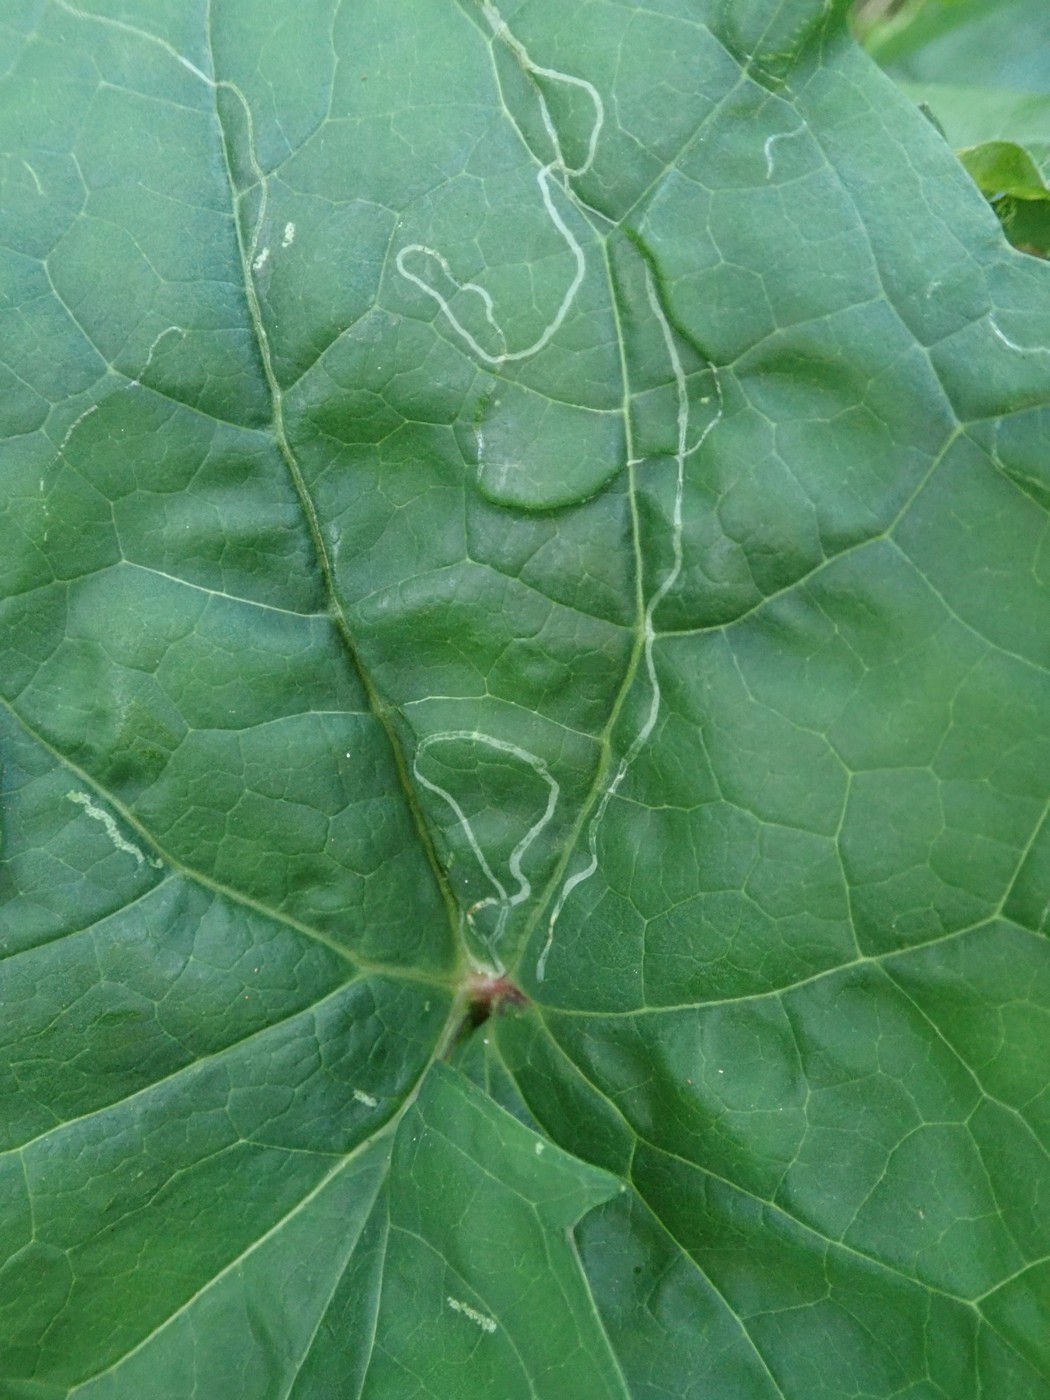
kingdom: Animalia
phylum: Arthropoda
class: Insecta
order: Lepidoptera
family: Gracillariidae
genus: Phyllocnistis
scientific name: Phyllocnistis insignis
